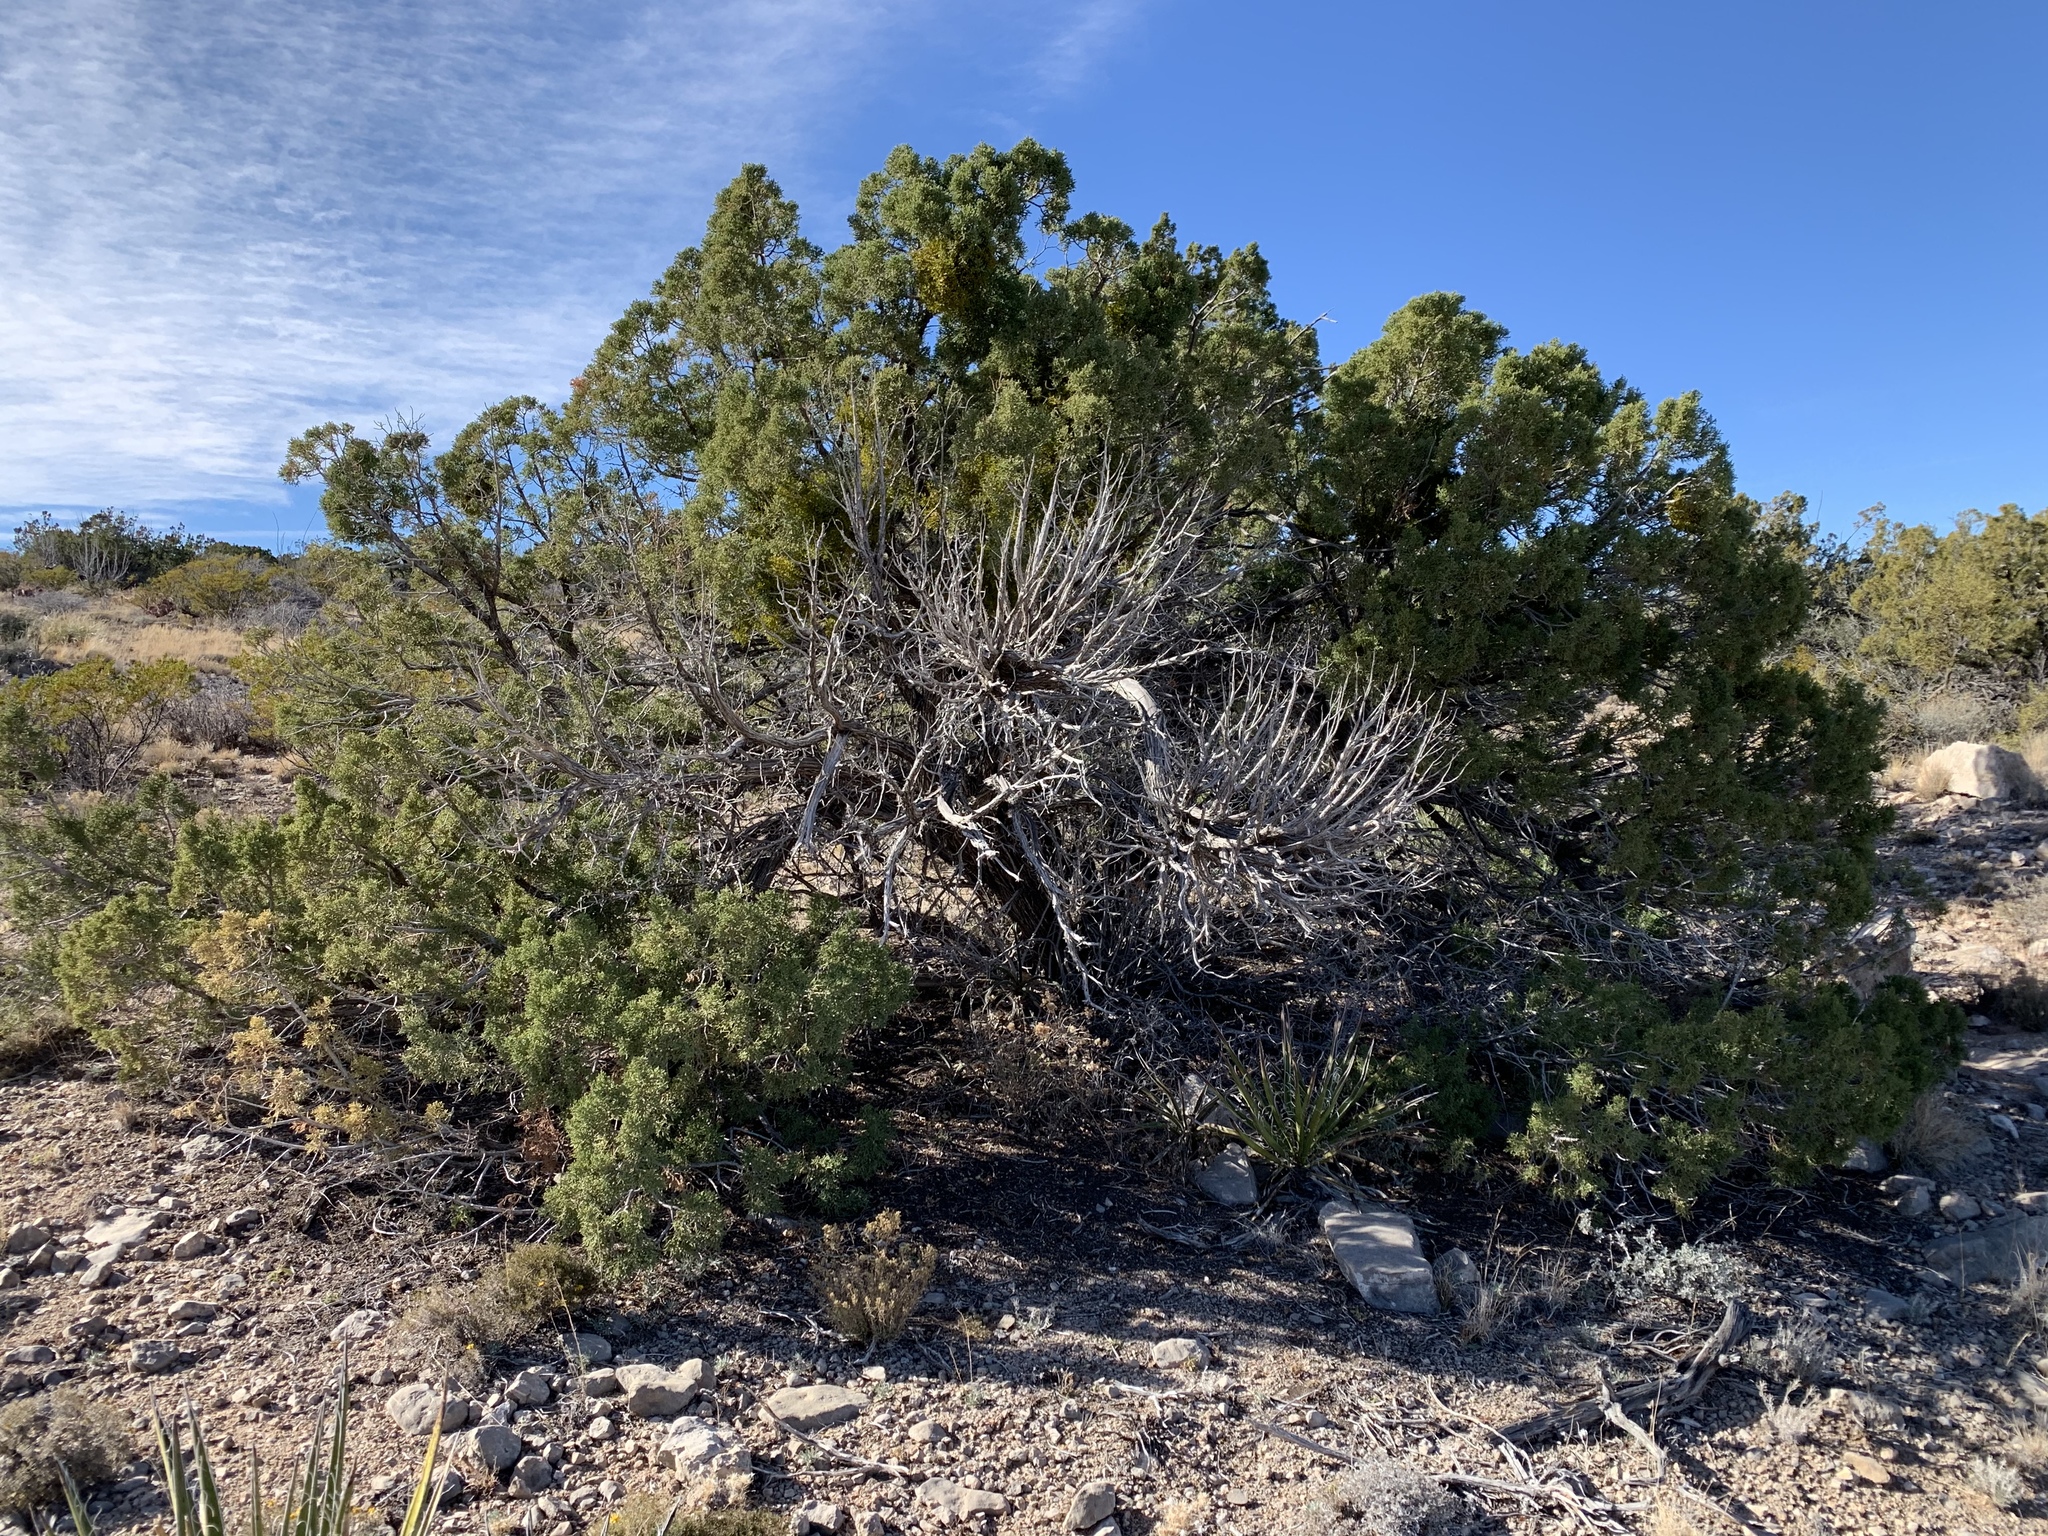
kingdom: Plantae
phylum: Tracheophyta
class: Pinopsida
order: Pinales
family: Cupressaceae
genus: Juniperus
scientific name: Juniperus monosperma
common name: One-seed juniper
